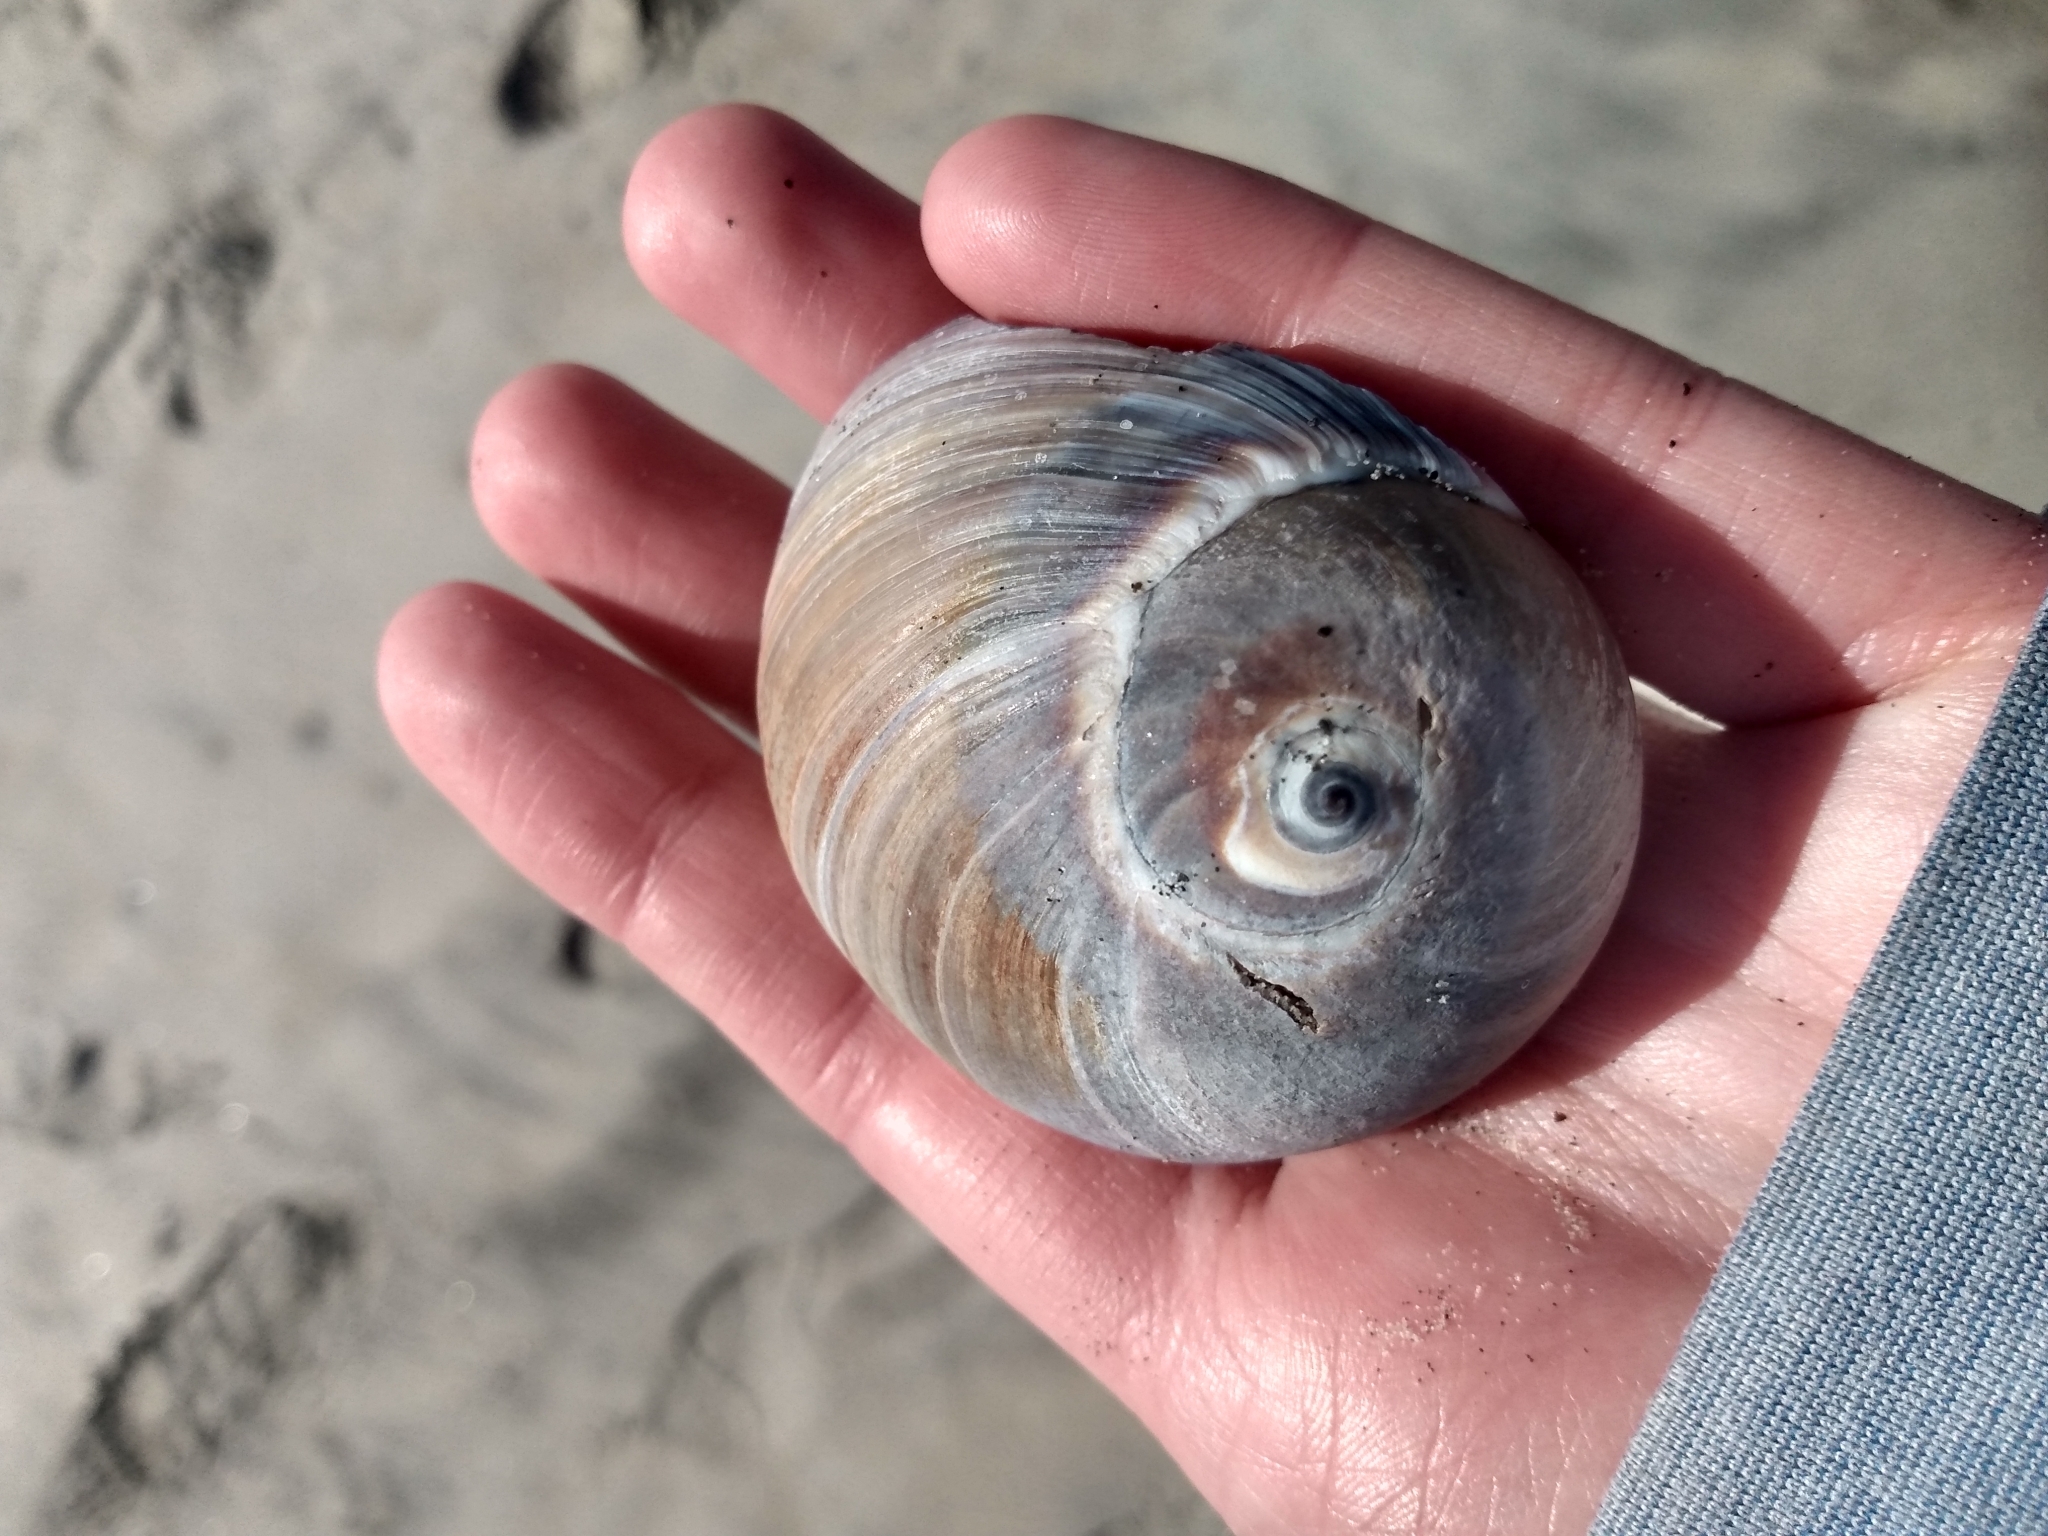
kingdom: Animalia
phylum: Mollusca
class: Gastropoda
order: Littorinimorpha
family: Naticidae
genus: Glossaulax
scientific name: Glossaulax reclusiana
